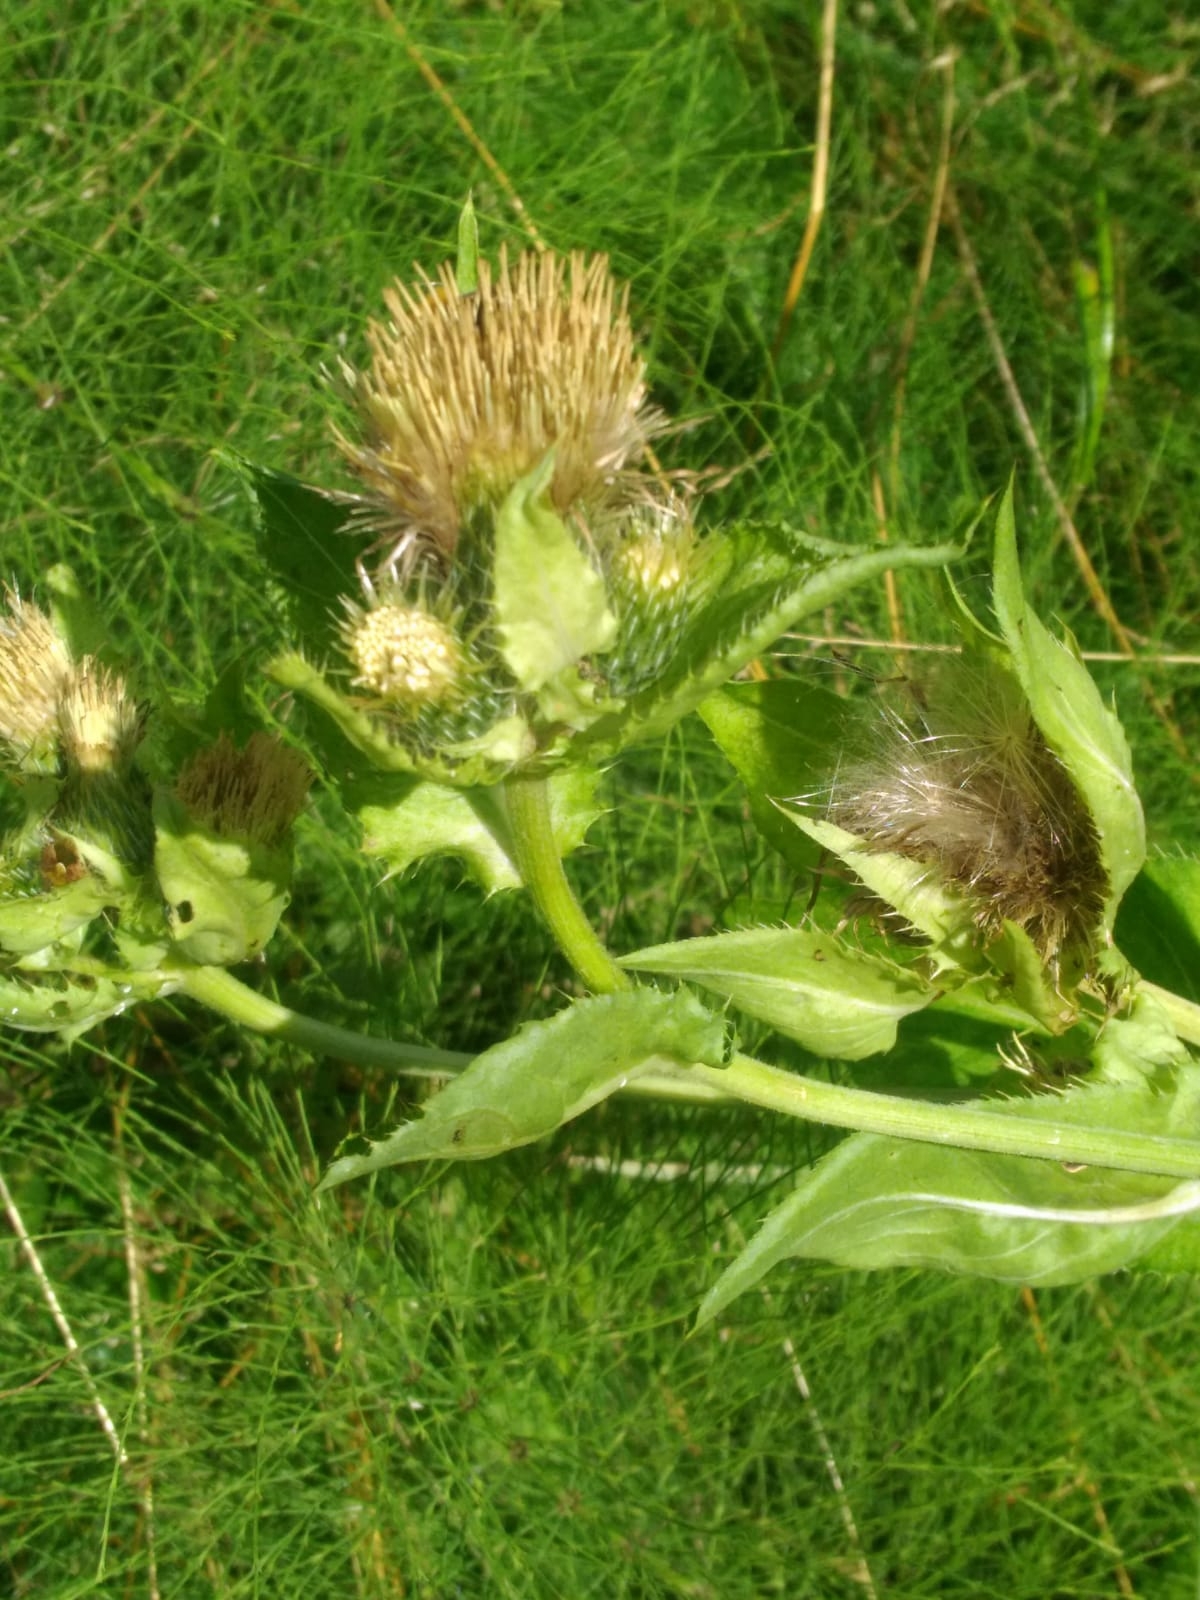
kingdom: Plantae
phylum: Tracheophyta
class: Magnoliopsida
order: Asterales
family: Asteraceae
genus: Cirsium
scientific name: Cirsium oleraceum
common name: Cabbage thistle
